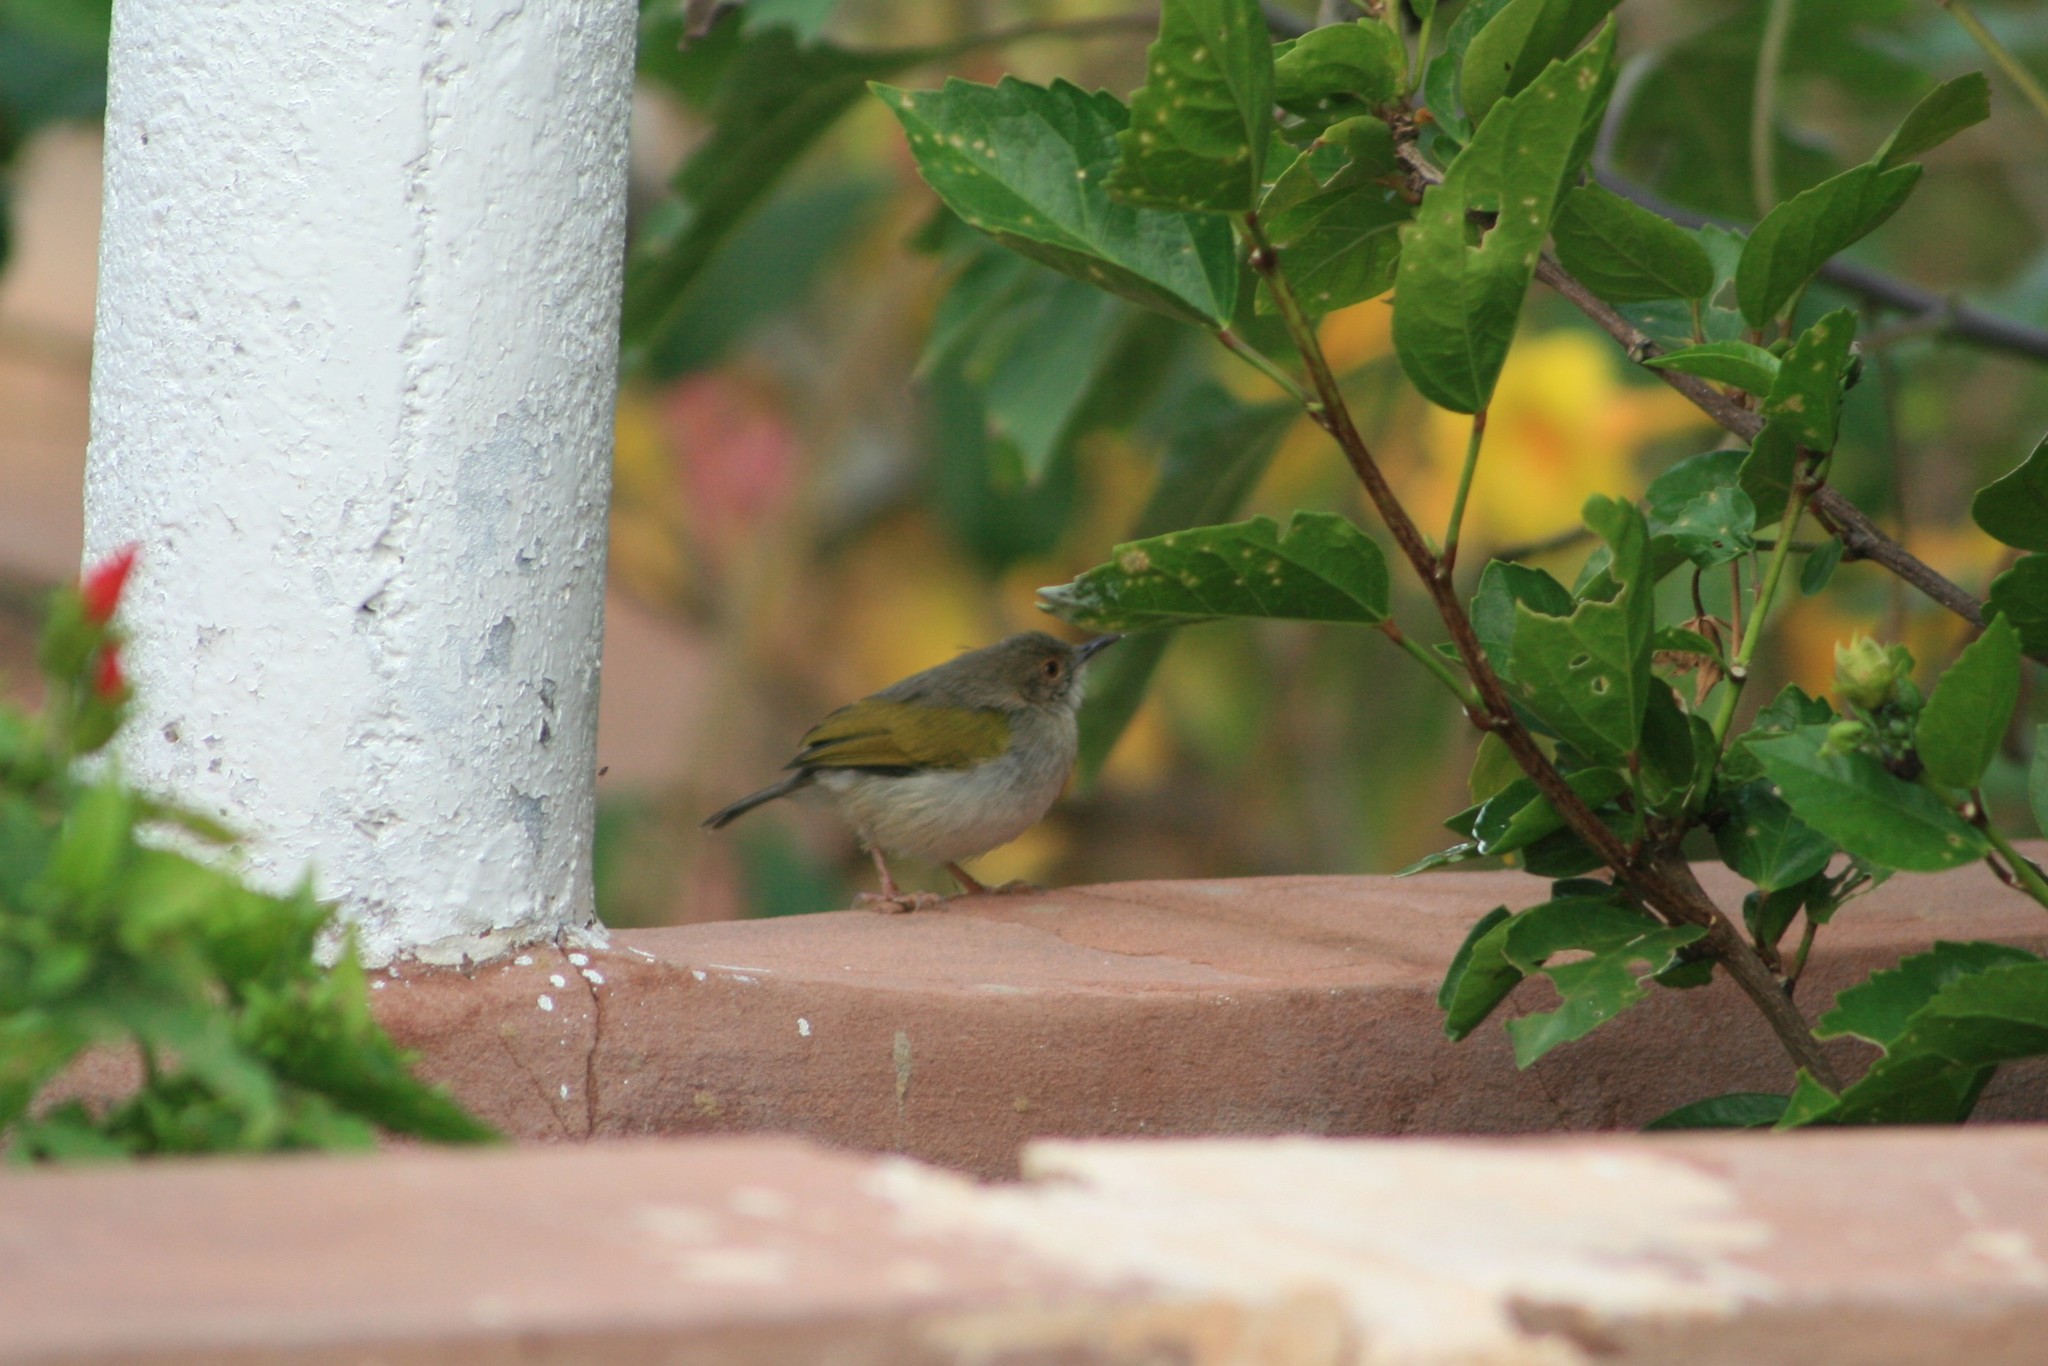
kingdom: Animalia
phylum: Chordata
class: Aves
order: Passeriformes
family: Cisticolidae
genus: Camaroptera
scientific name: Camaroptera brachyura
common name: Green-backed camaroptera
